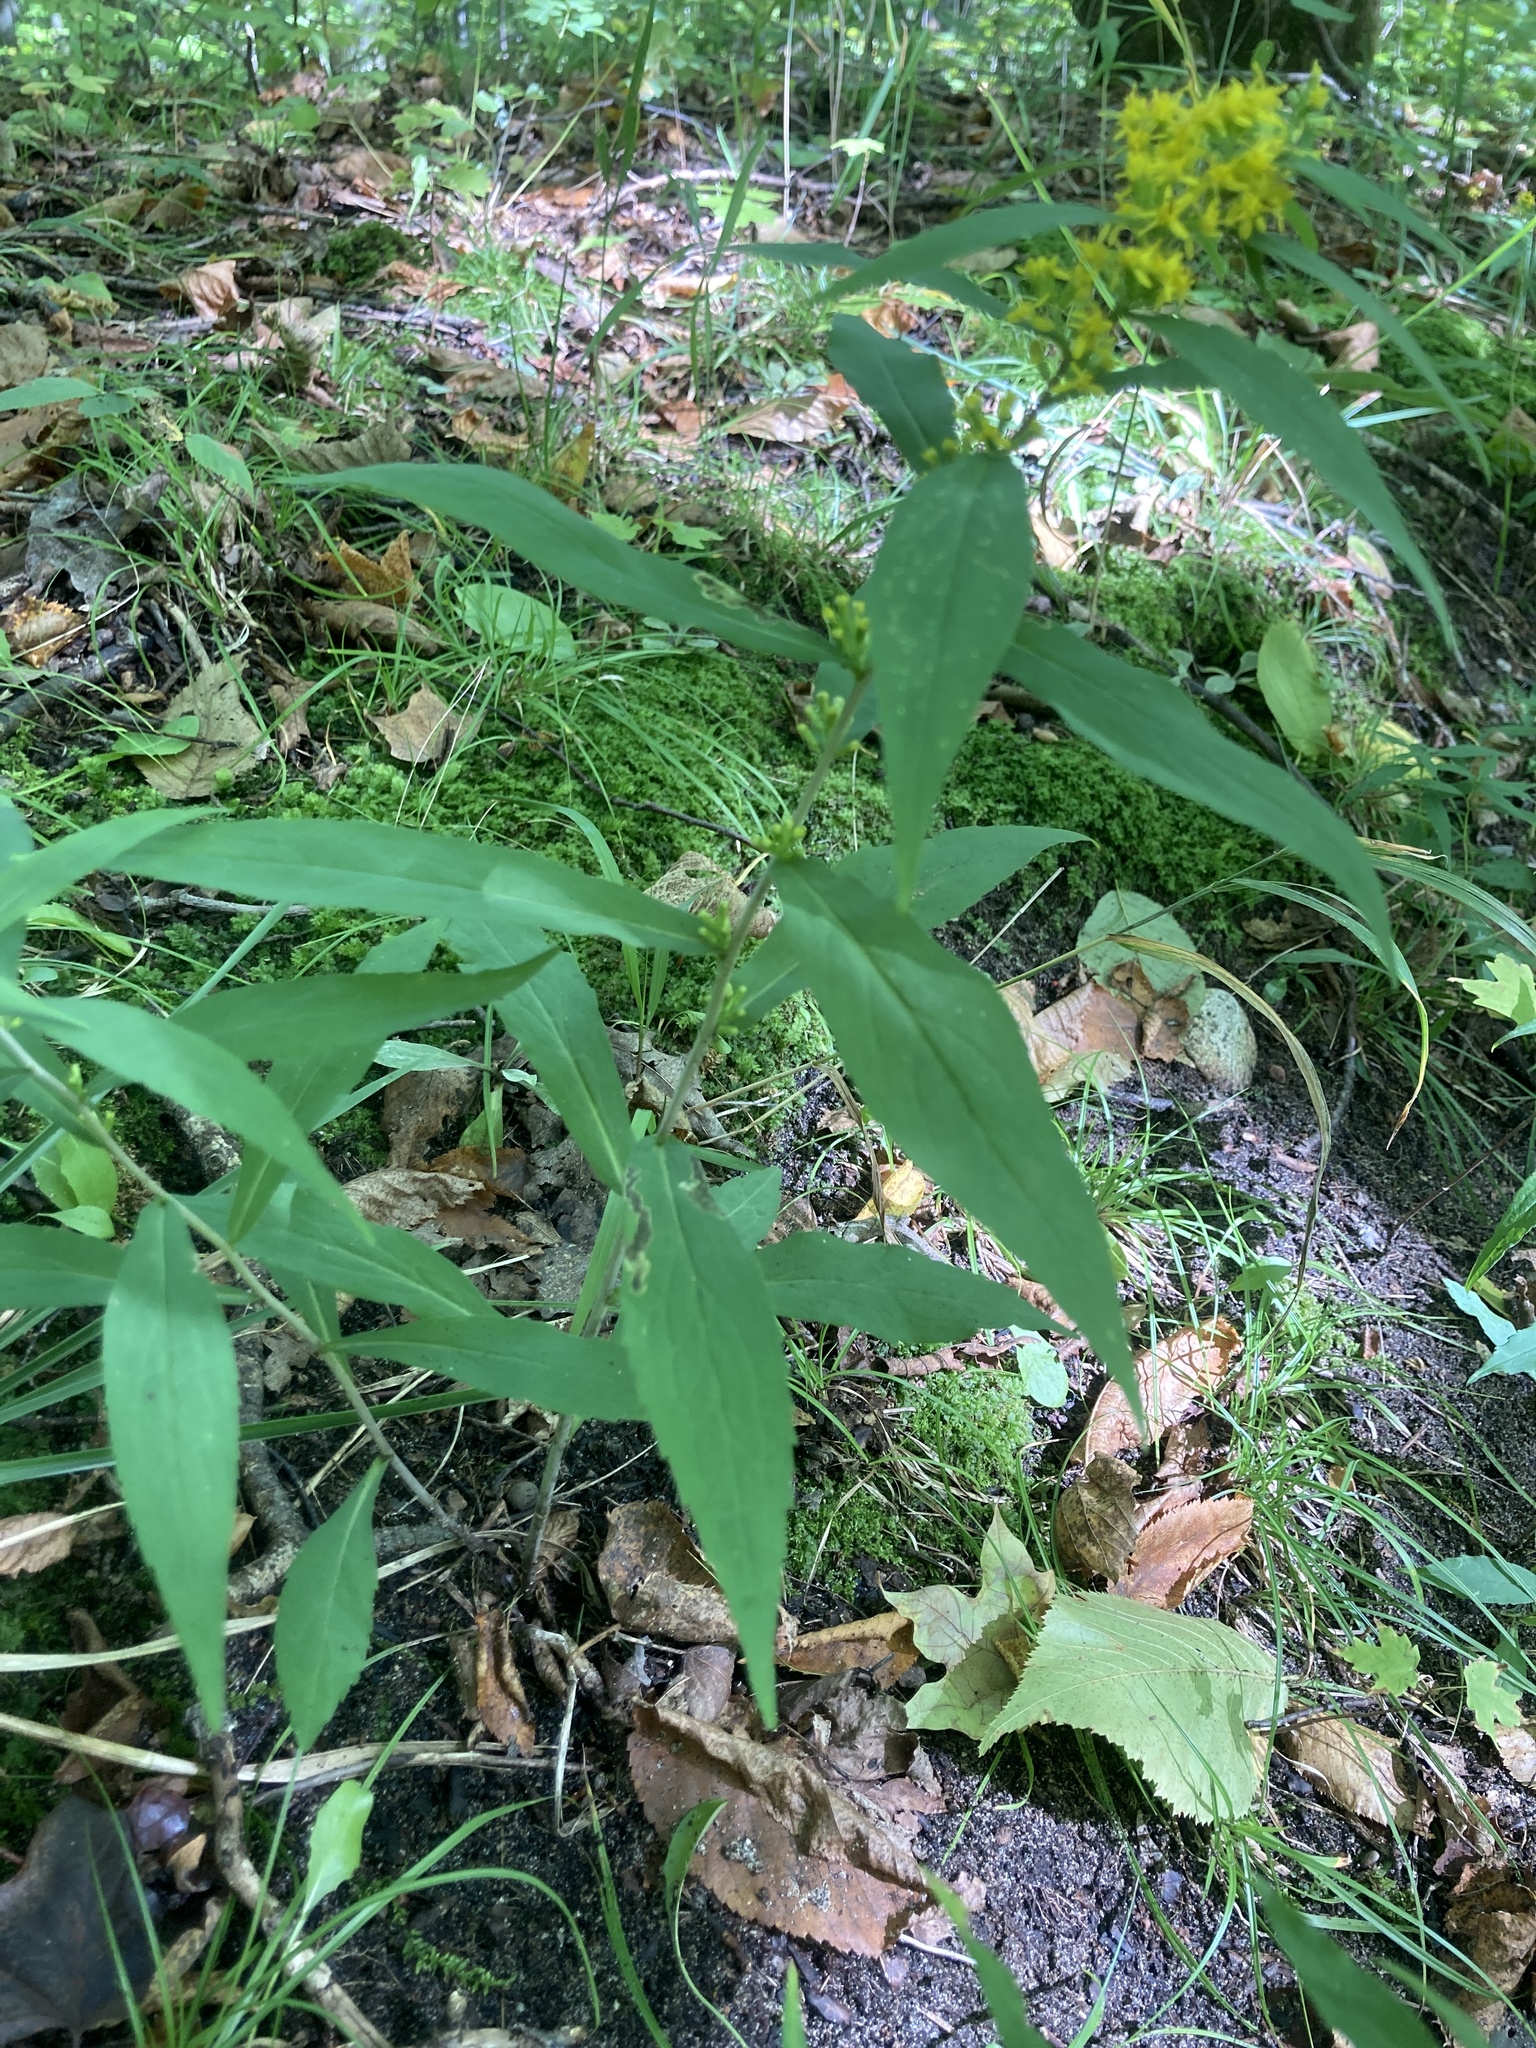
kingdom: Plantae
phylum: Tracheophyta
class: Magnoliopsida
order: Asterales
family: Asteraceae
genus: Solidago
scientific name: Solidago caesia
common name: Woodland goldenrod
